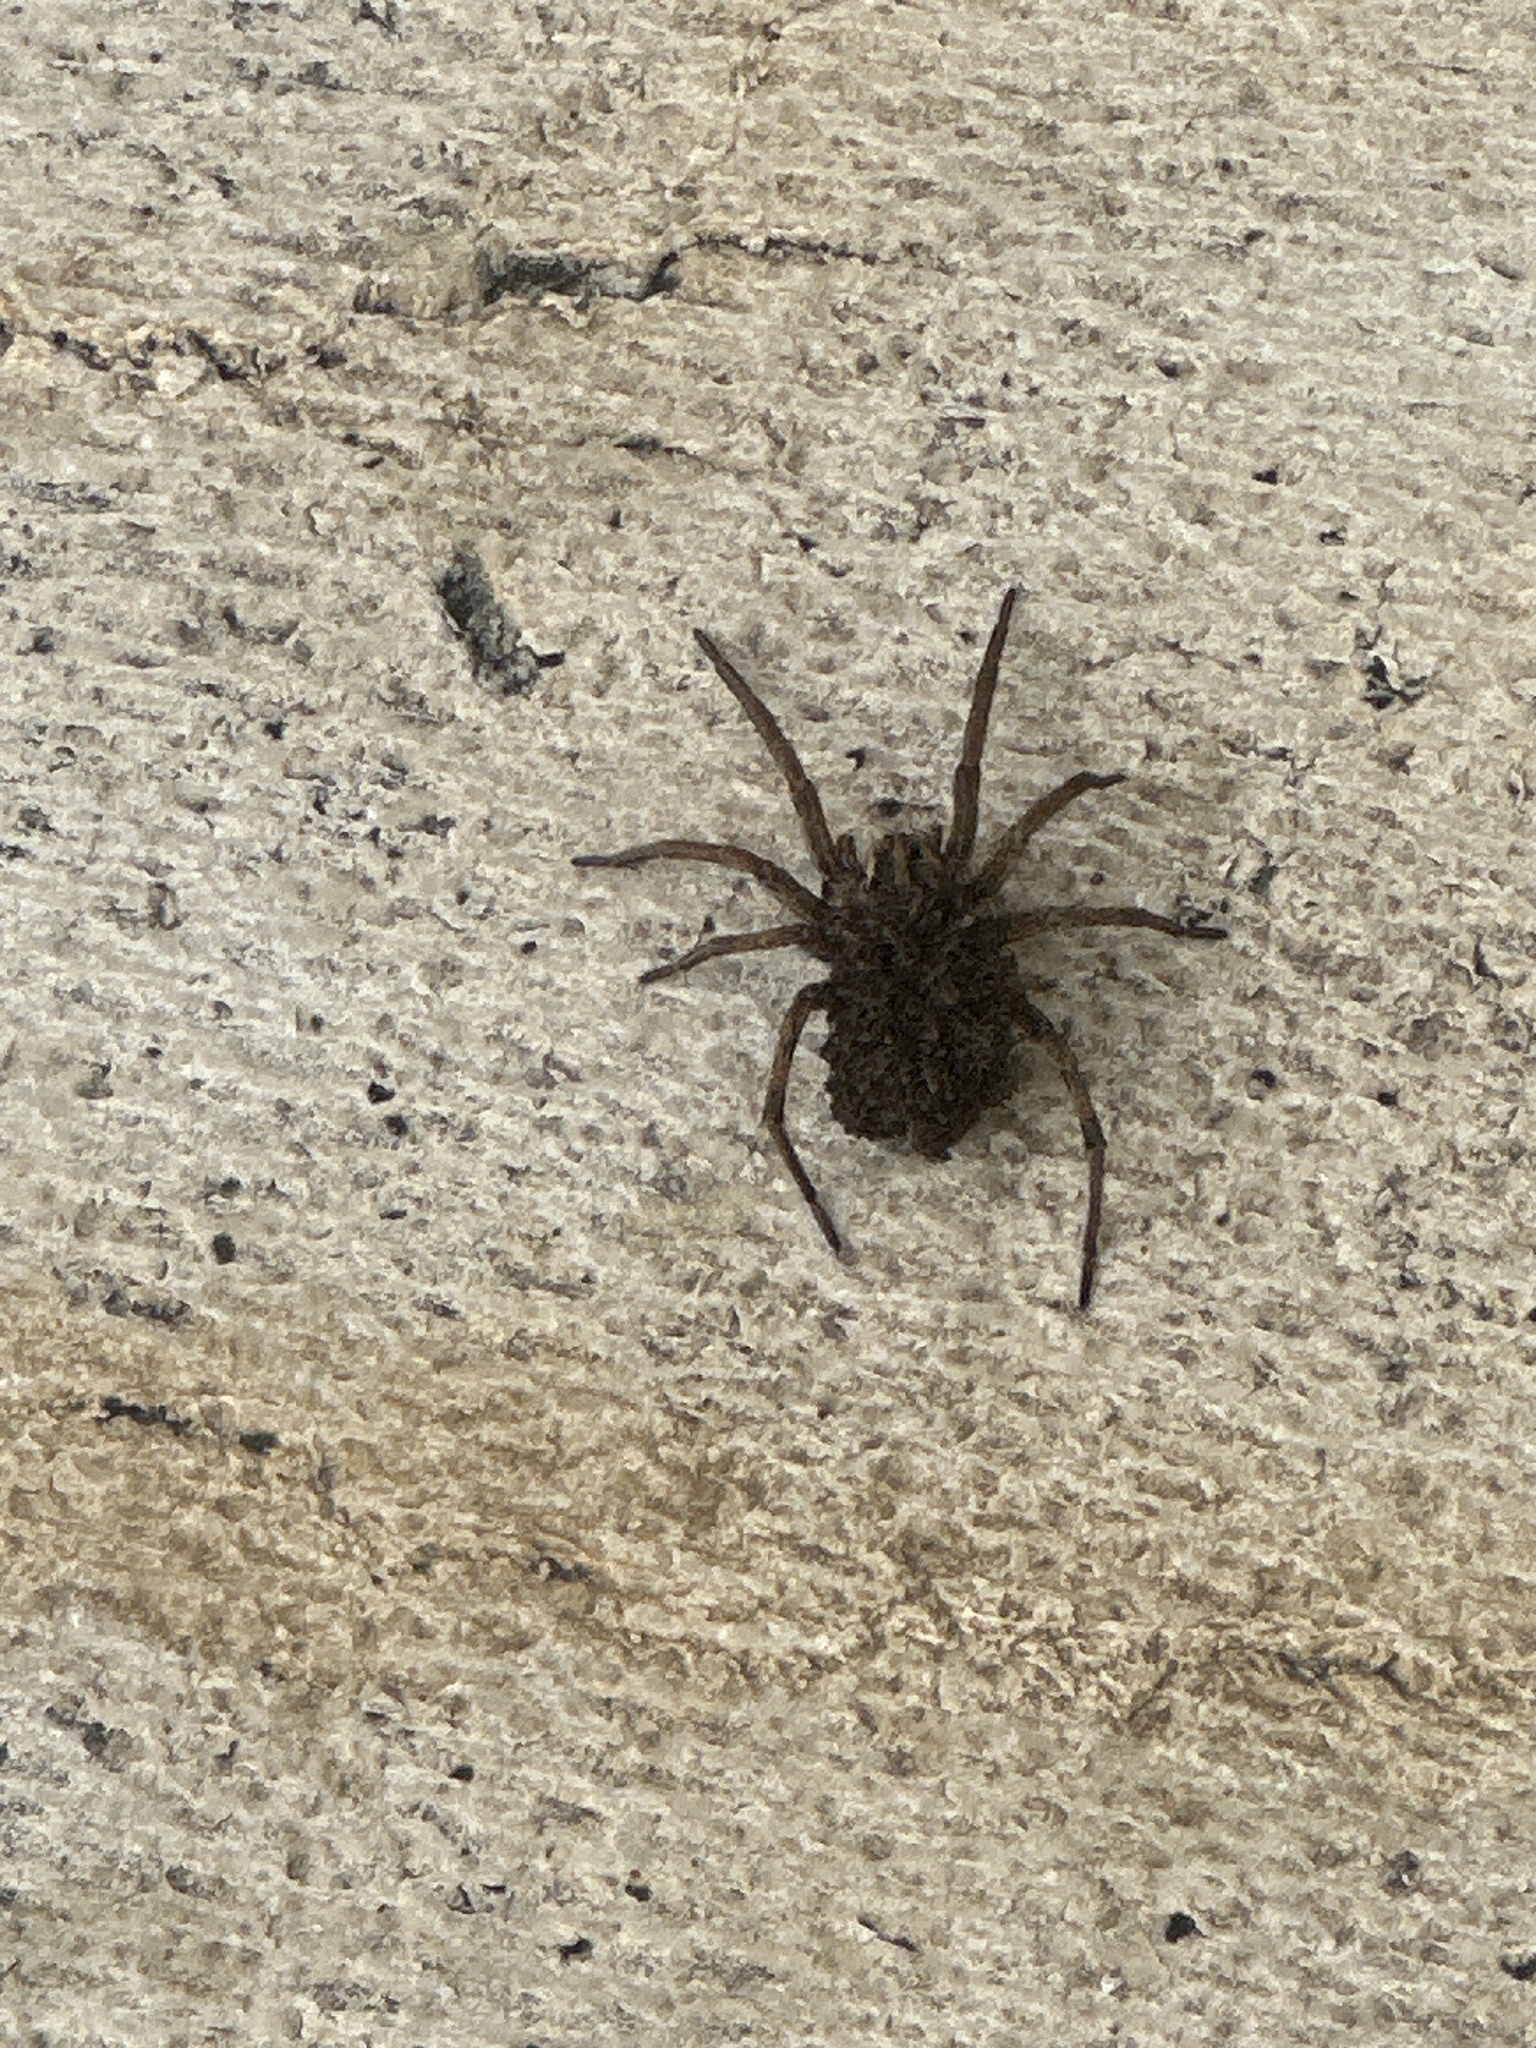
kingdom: Animalia
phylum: Arthropoda
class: Arachnida
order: Araneae
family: Lycosidae
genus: Hogna
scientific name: Hogna radiata
